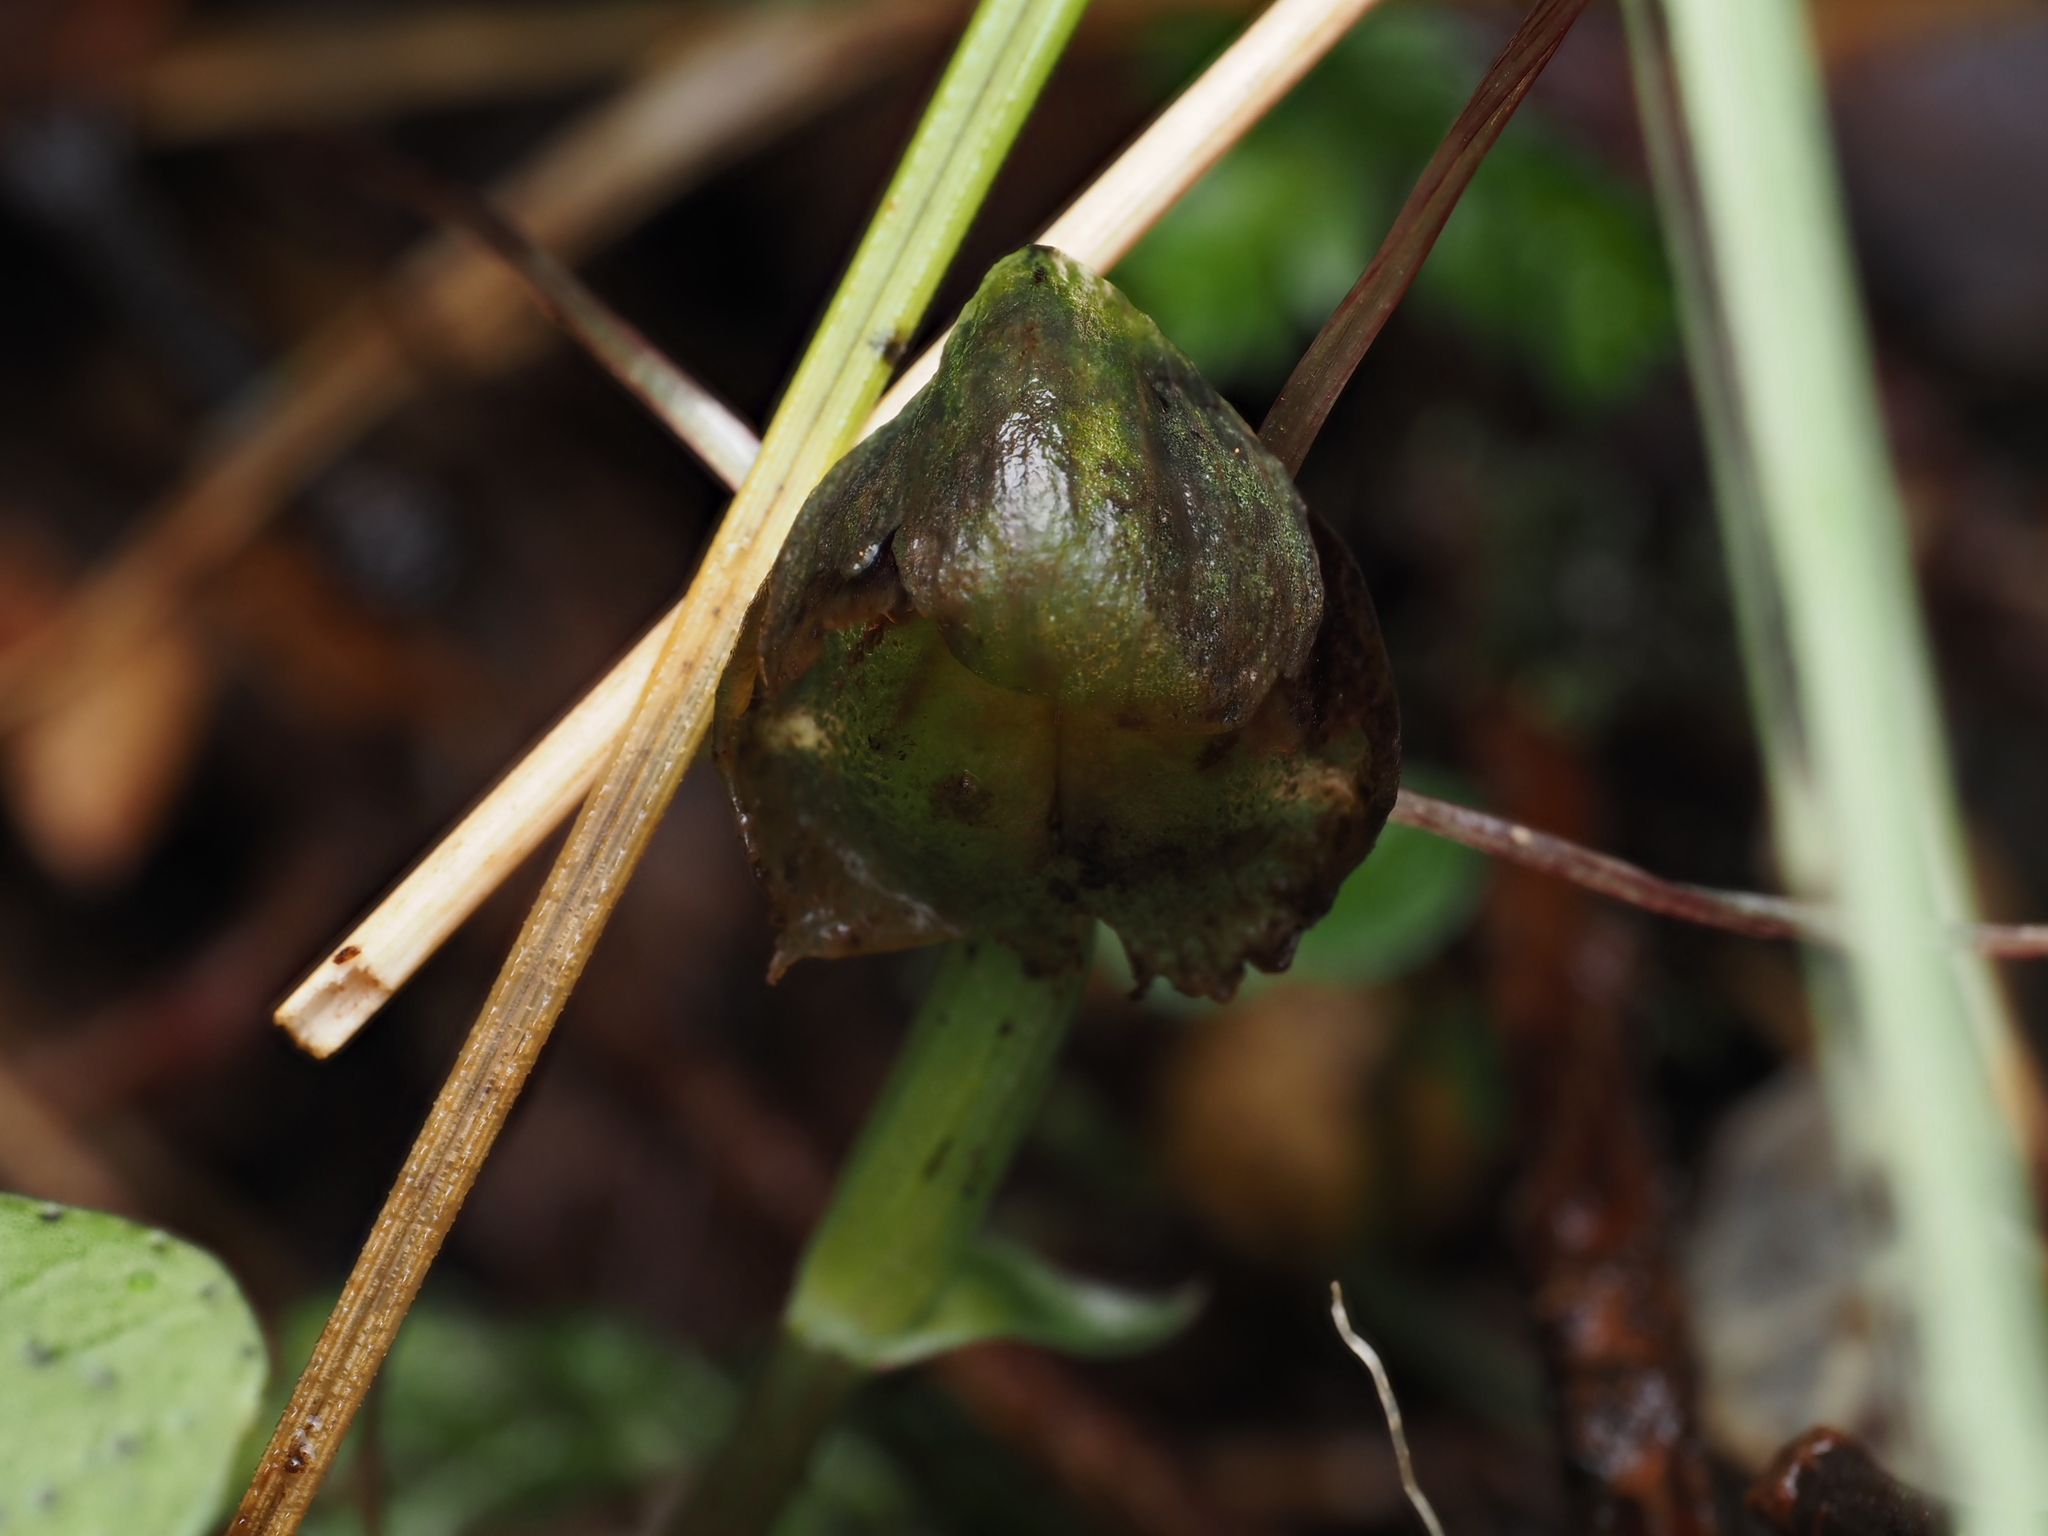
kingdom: Plantae
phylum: Tracheophyta
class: Liliopsida
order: Asparagales
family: Orchidaceae
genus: Corybas
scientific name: Corybas vitreus
